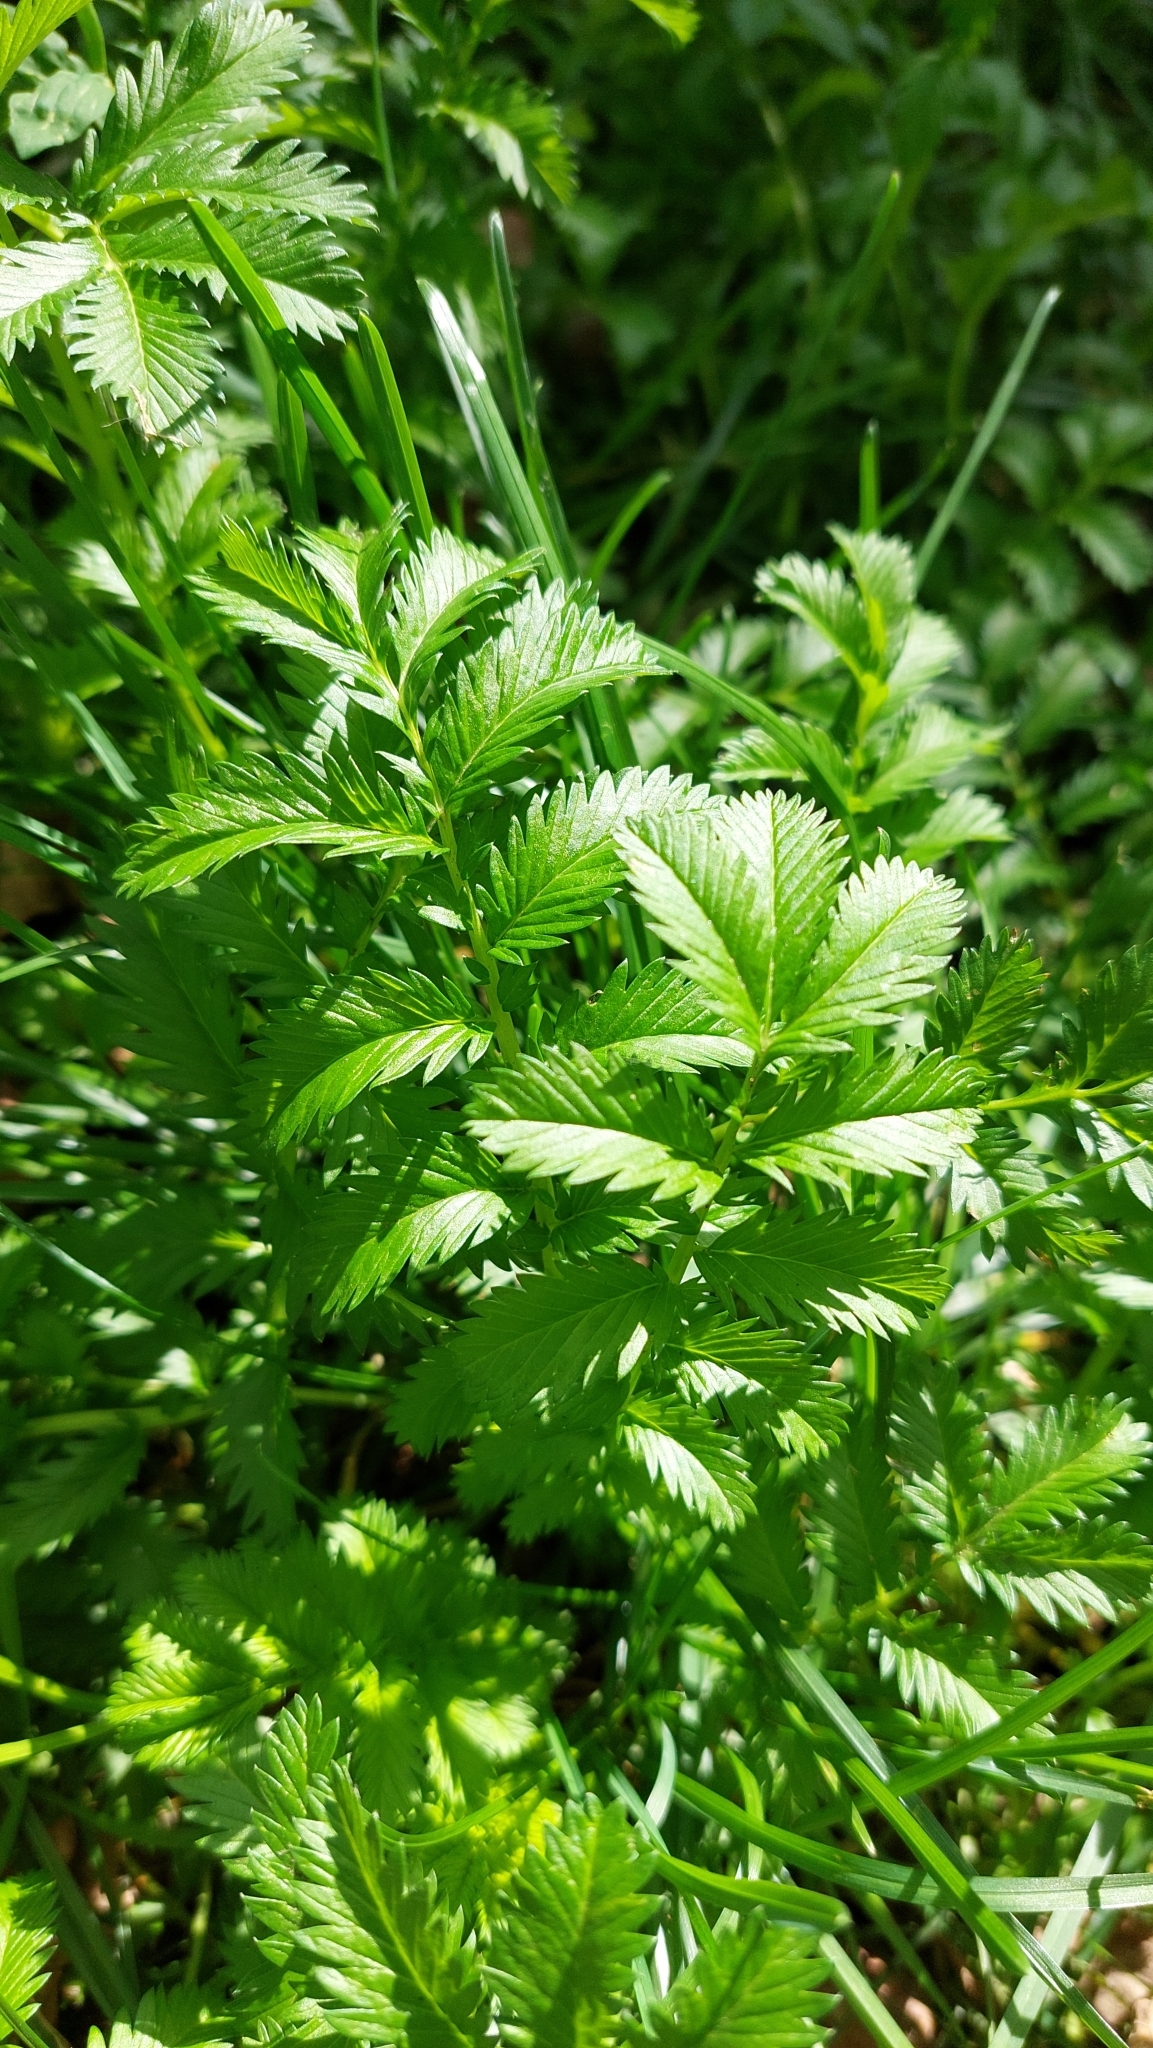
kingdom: Plantae
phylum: Tracheophyta
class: Magnoliopsida
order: Rosales
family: Rosaceae
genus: Argentina
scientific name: Argentina anserina
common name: Common silverweed
